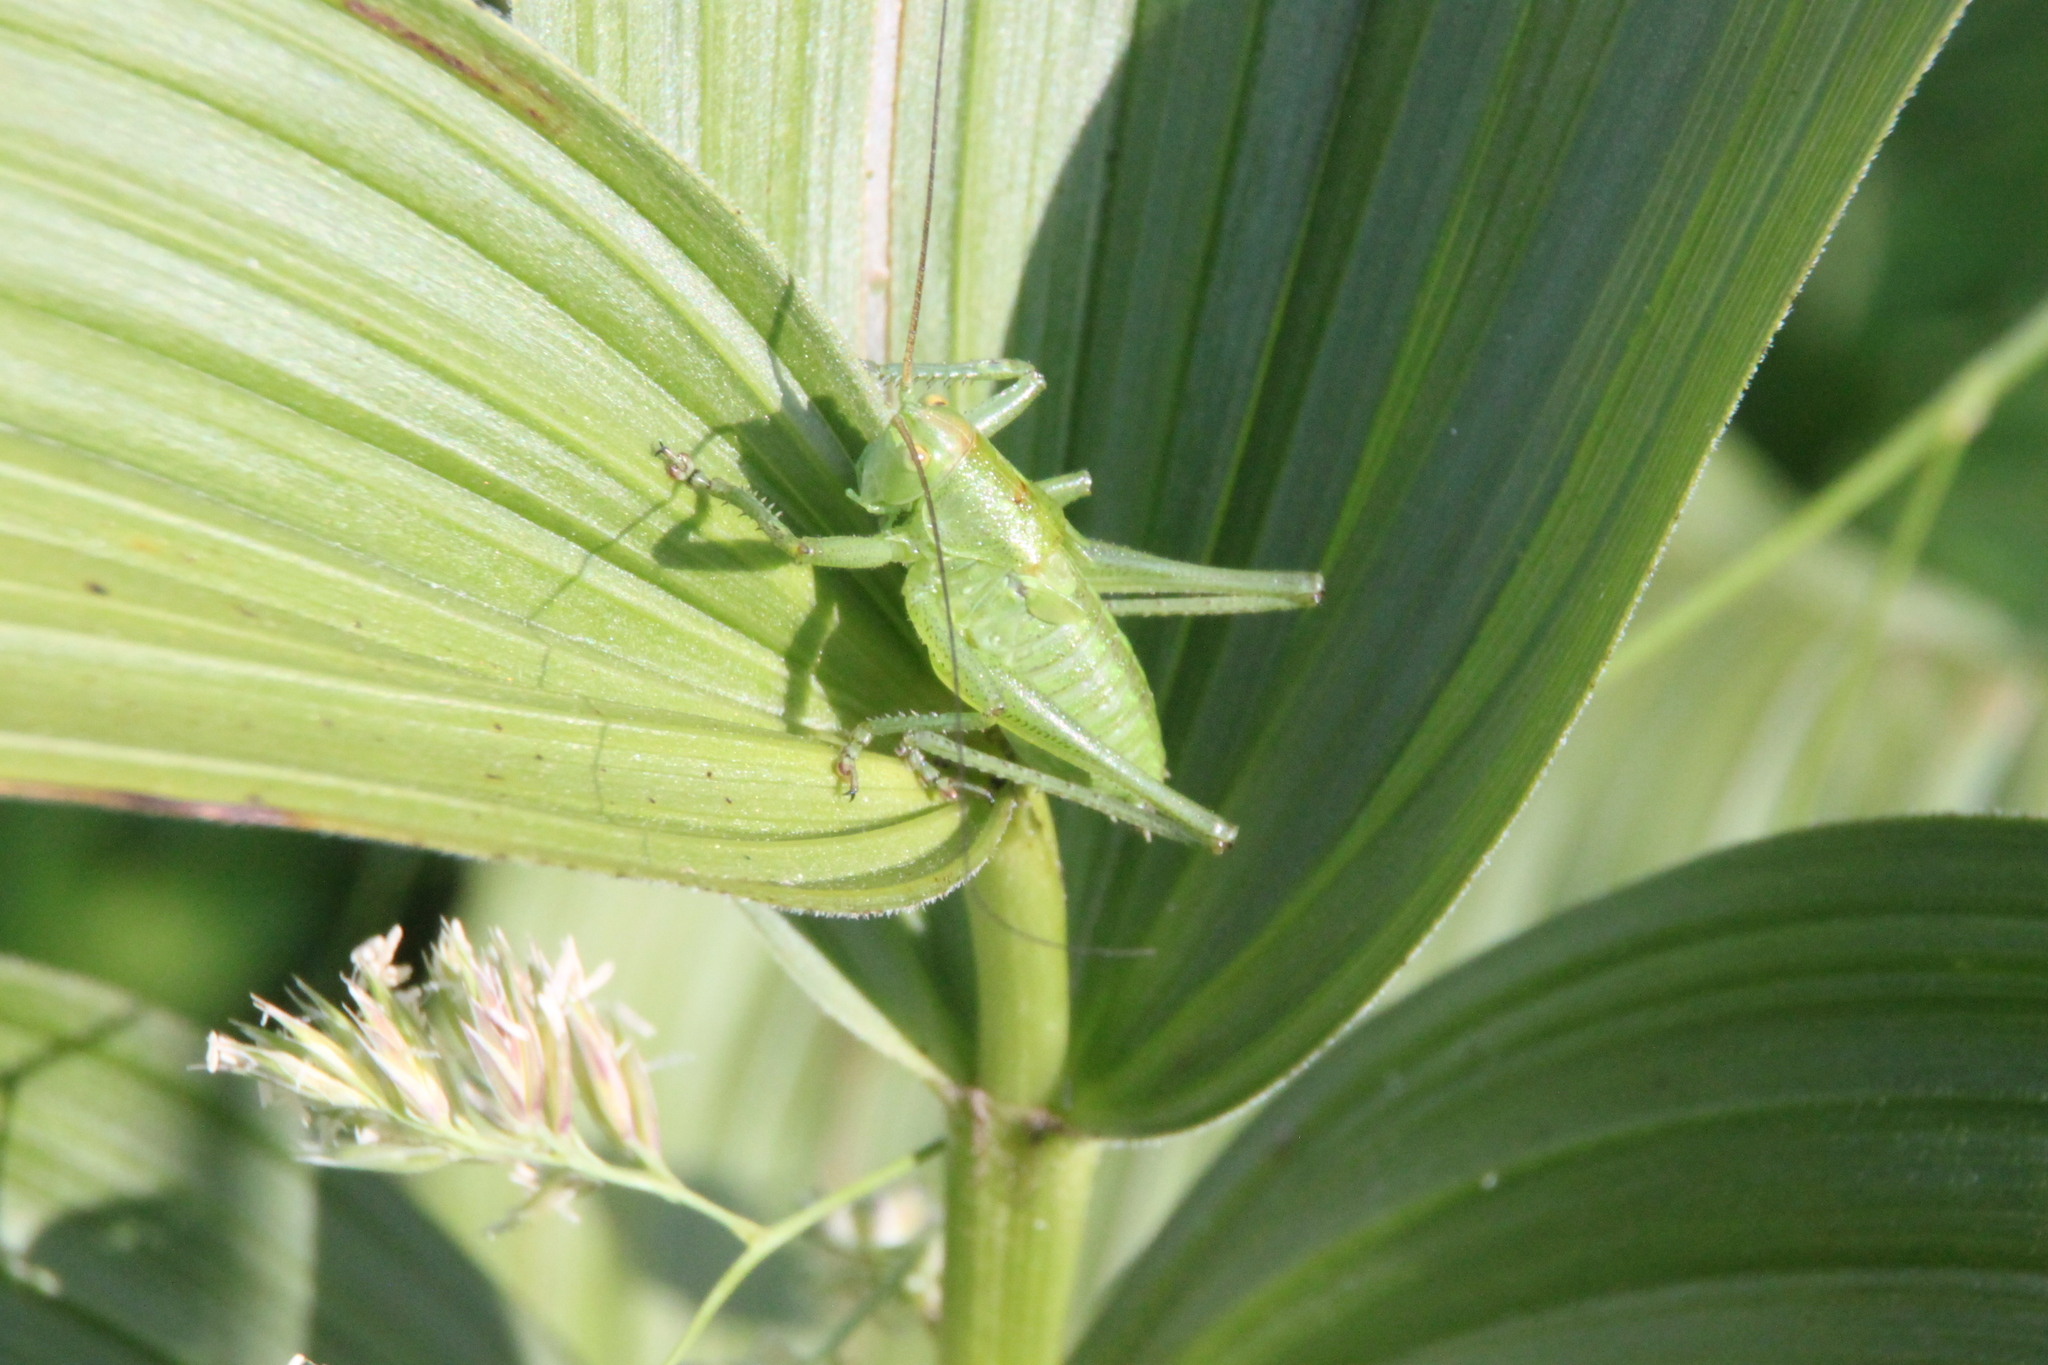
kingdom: Animalia
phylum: Arthropoda
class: Insecta
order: Orthoptera
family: Tettigoniidae
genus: Tettigonia
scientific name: Tettigonia cantans
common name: Upland green bush-cricket
